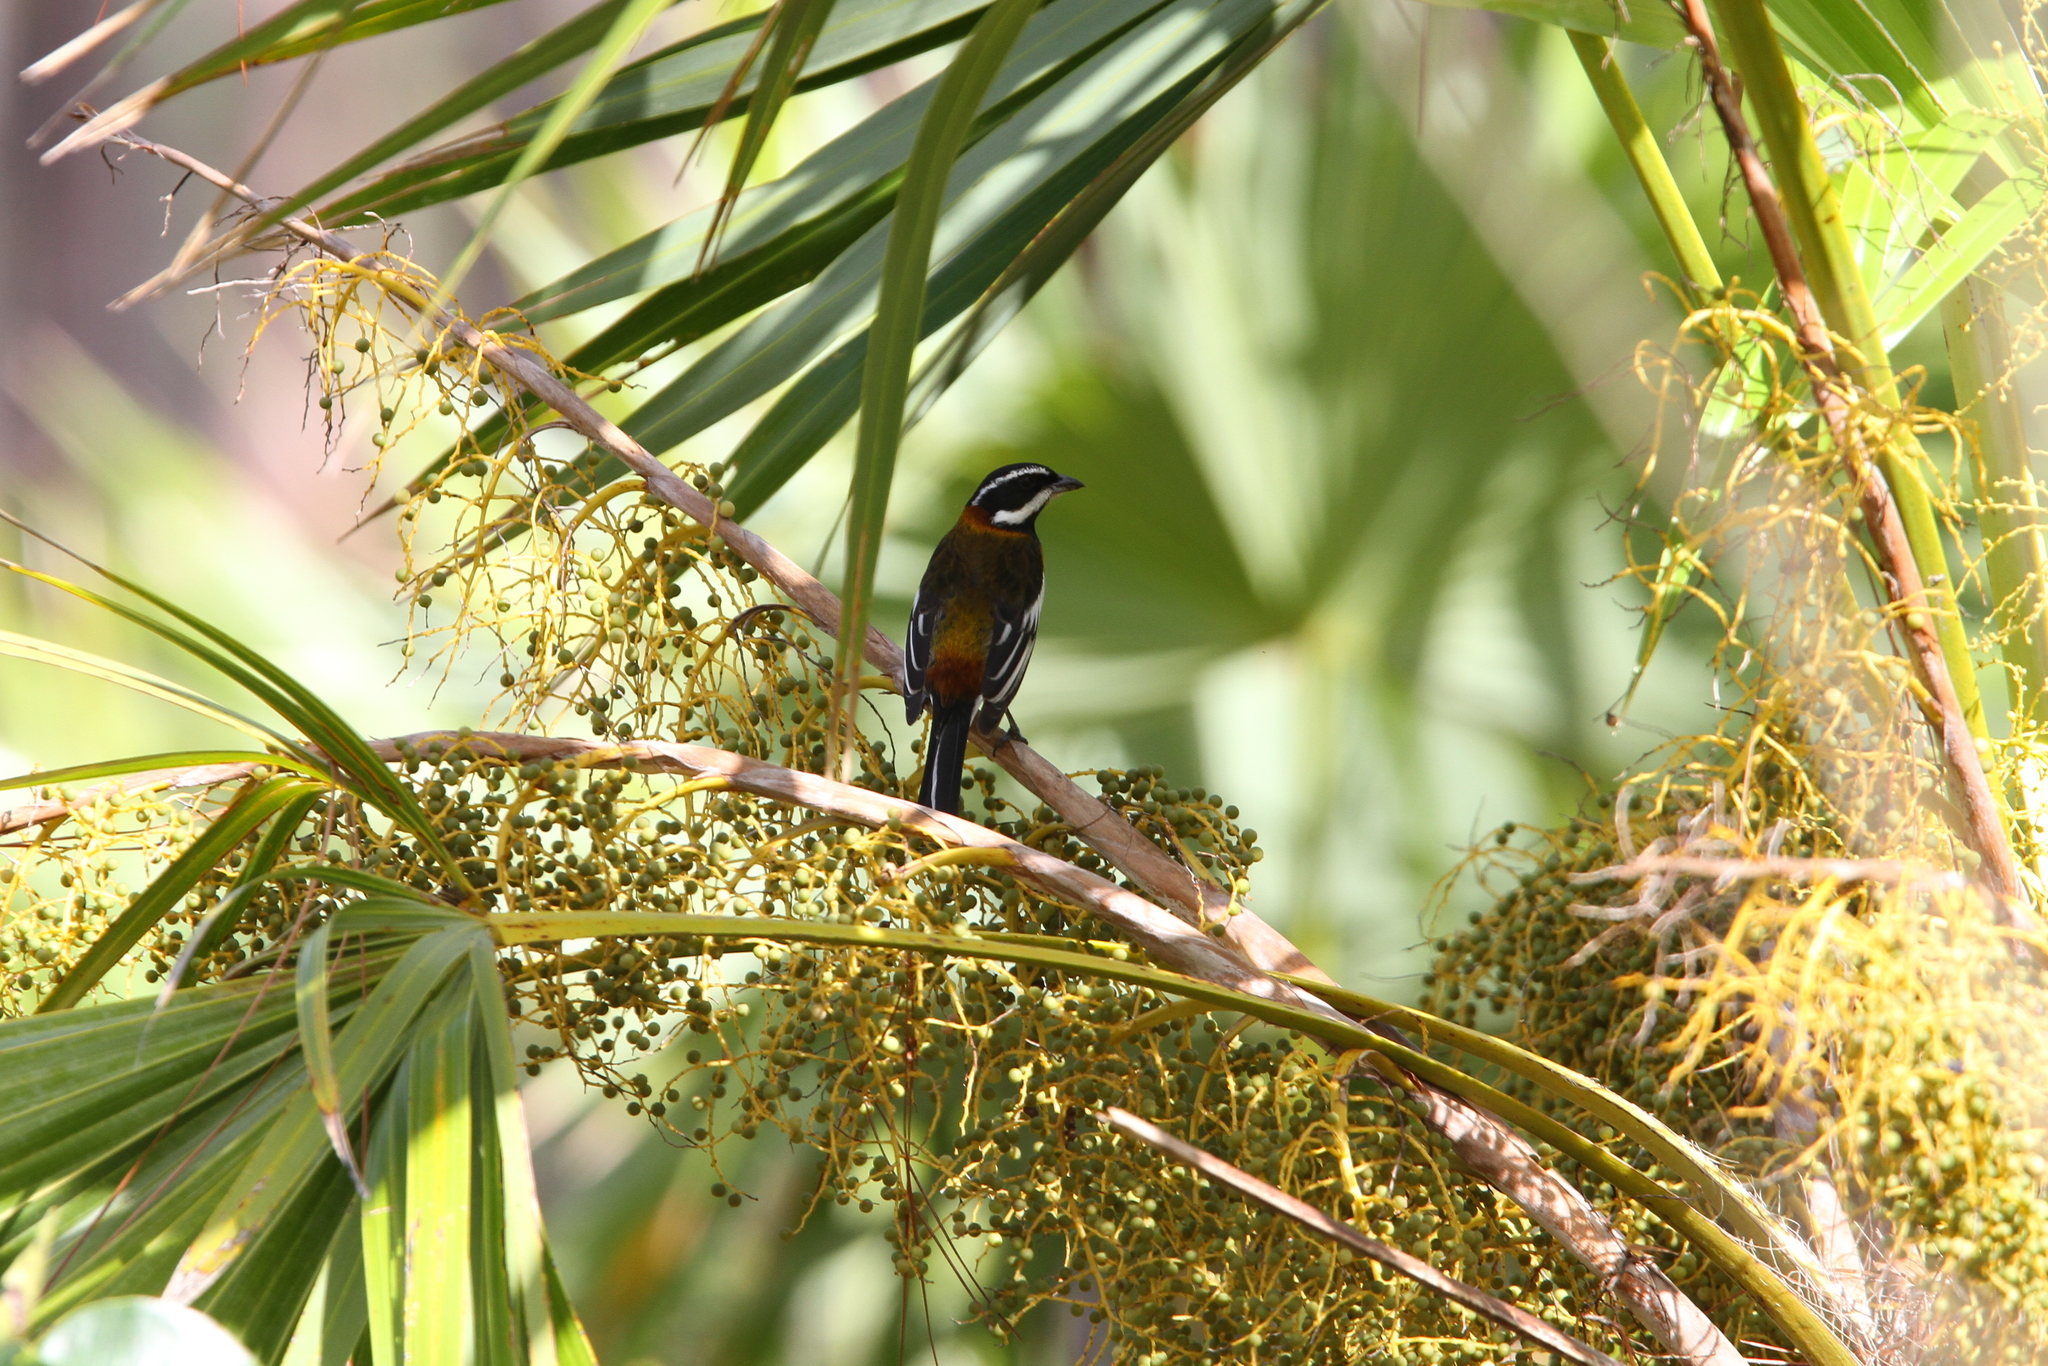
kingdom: Animalia
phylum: Chordata
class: Aves
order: Passeriformes
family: Spindalidae
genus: Spindalis
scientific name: Spindalis zena
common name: Western spindalis
